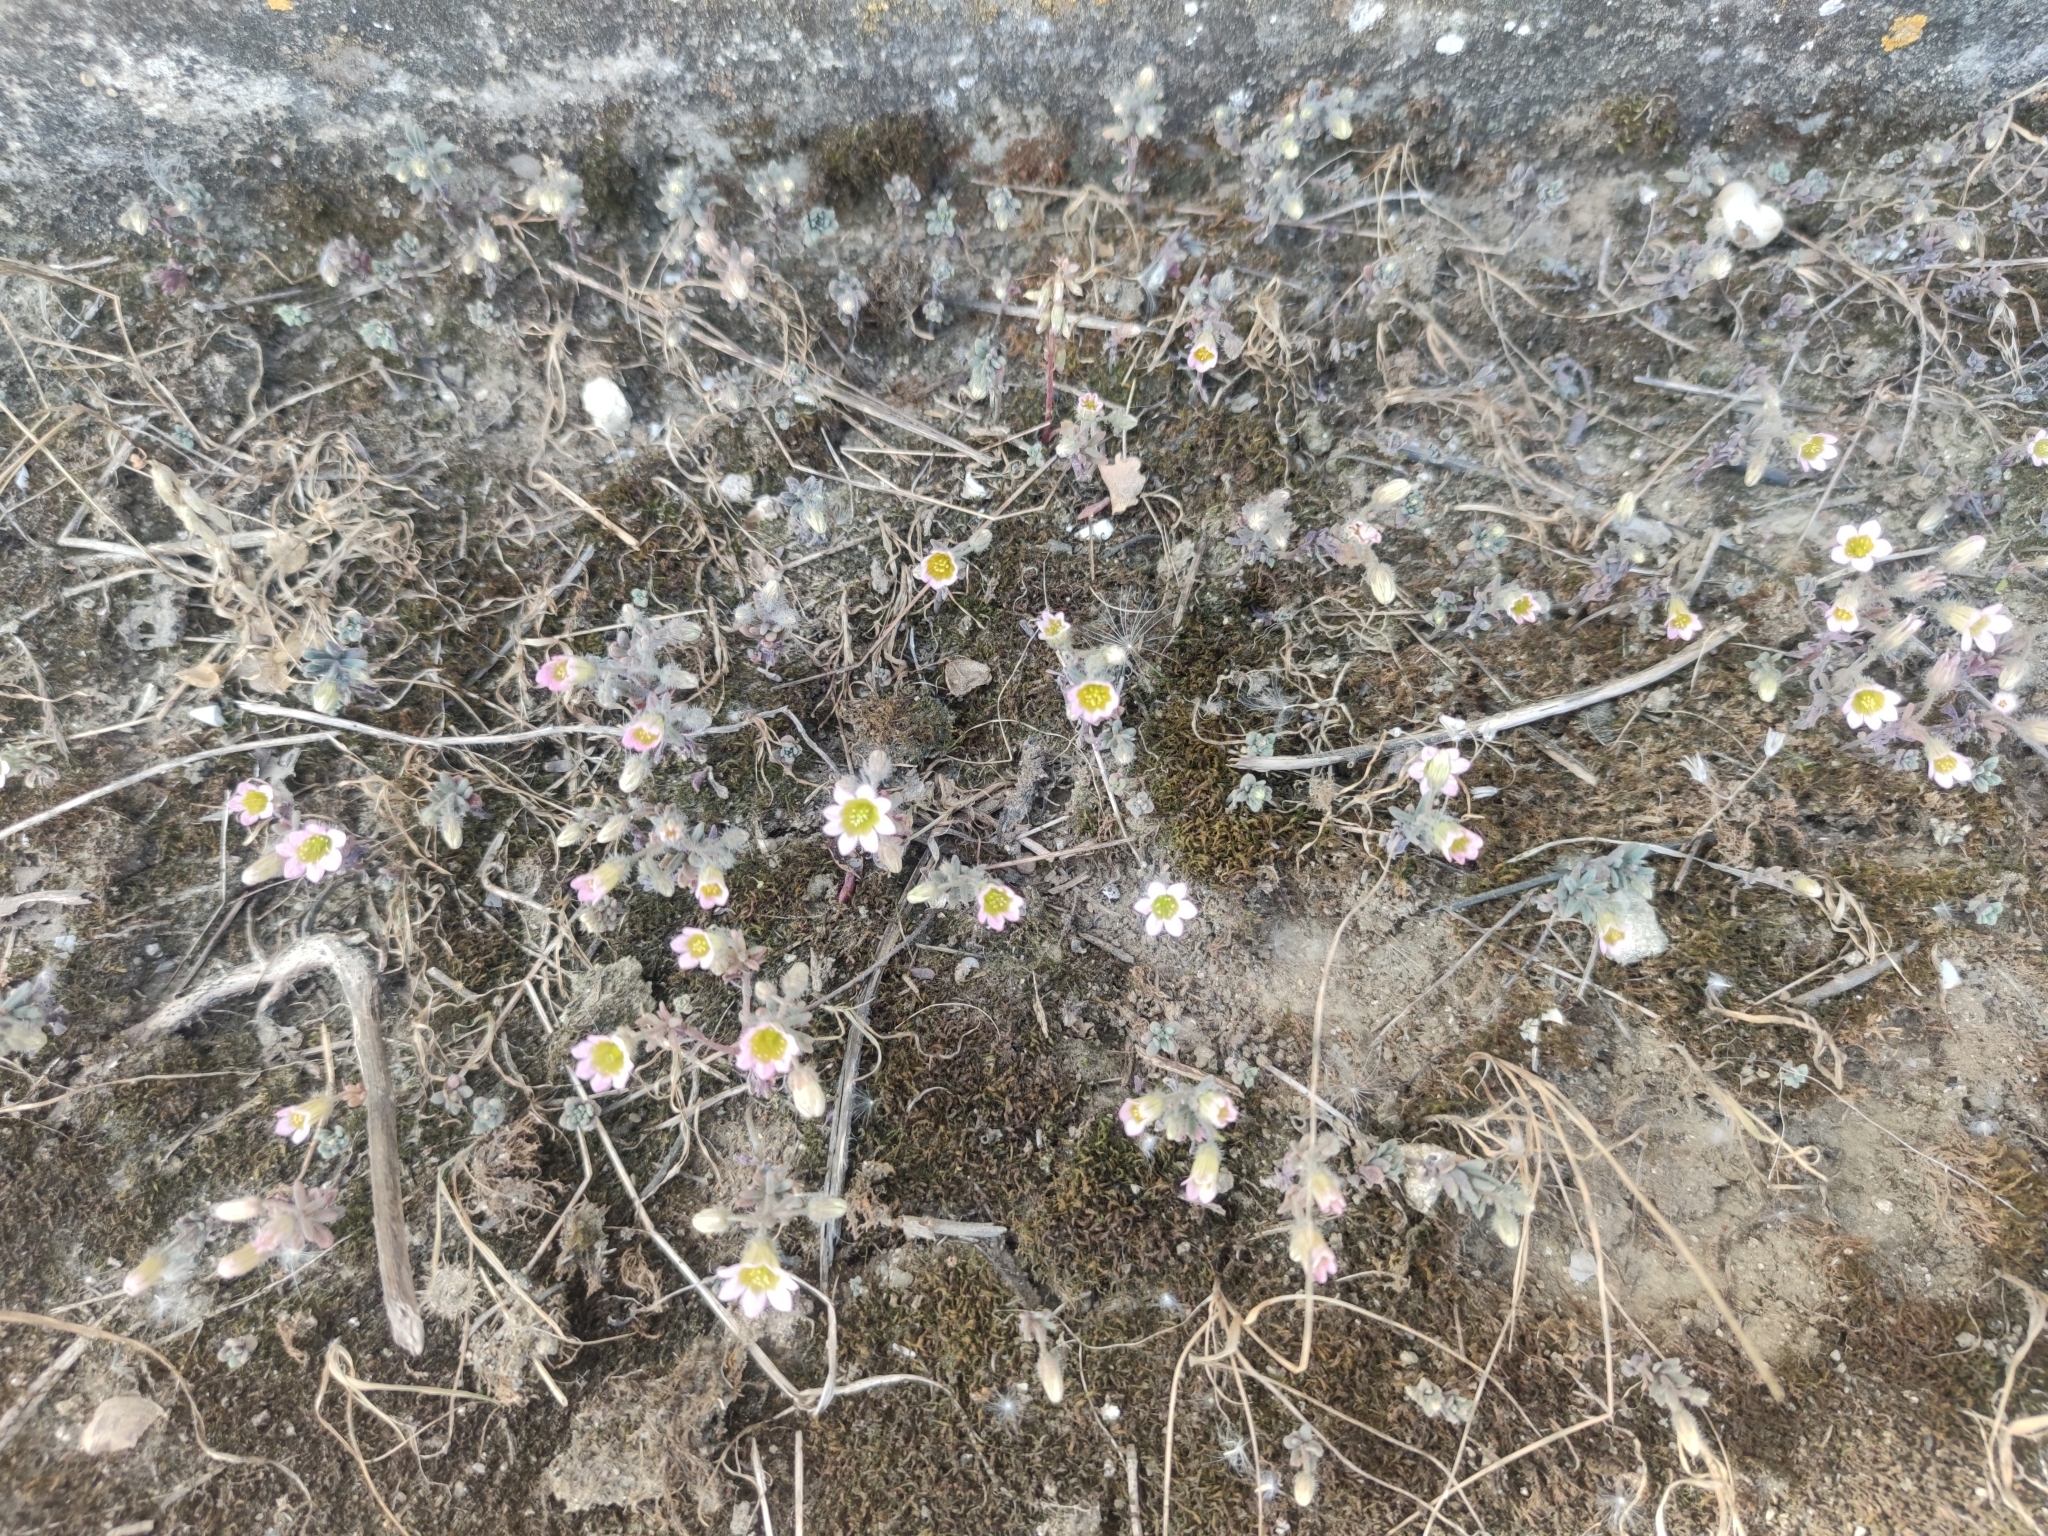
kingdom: Plantae
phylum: Tracheophyta
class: Magnoliopsida
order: Saxifragales
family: Crassulaceae
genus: Sedum
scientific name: Sedum mucizonia
